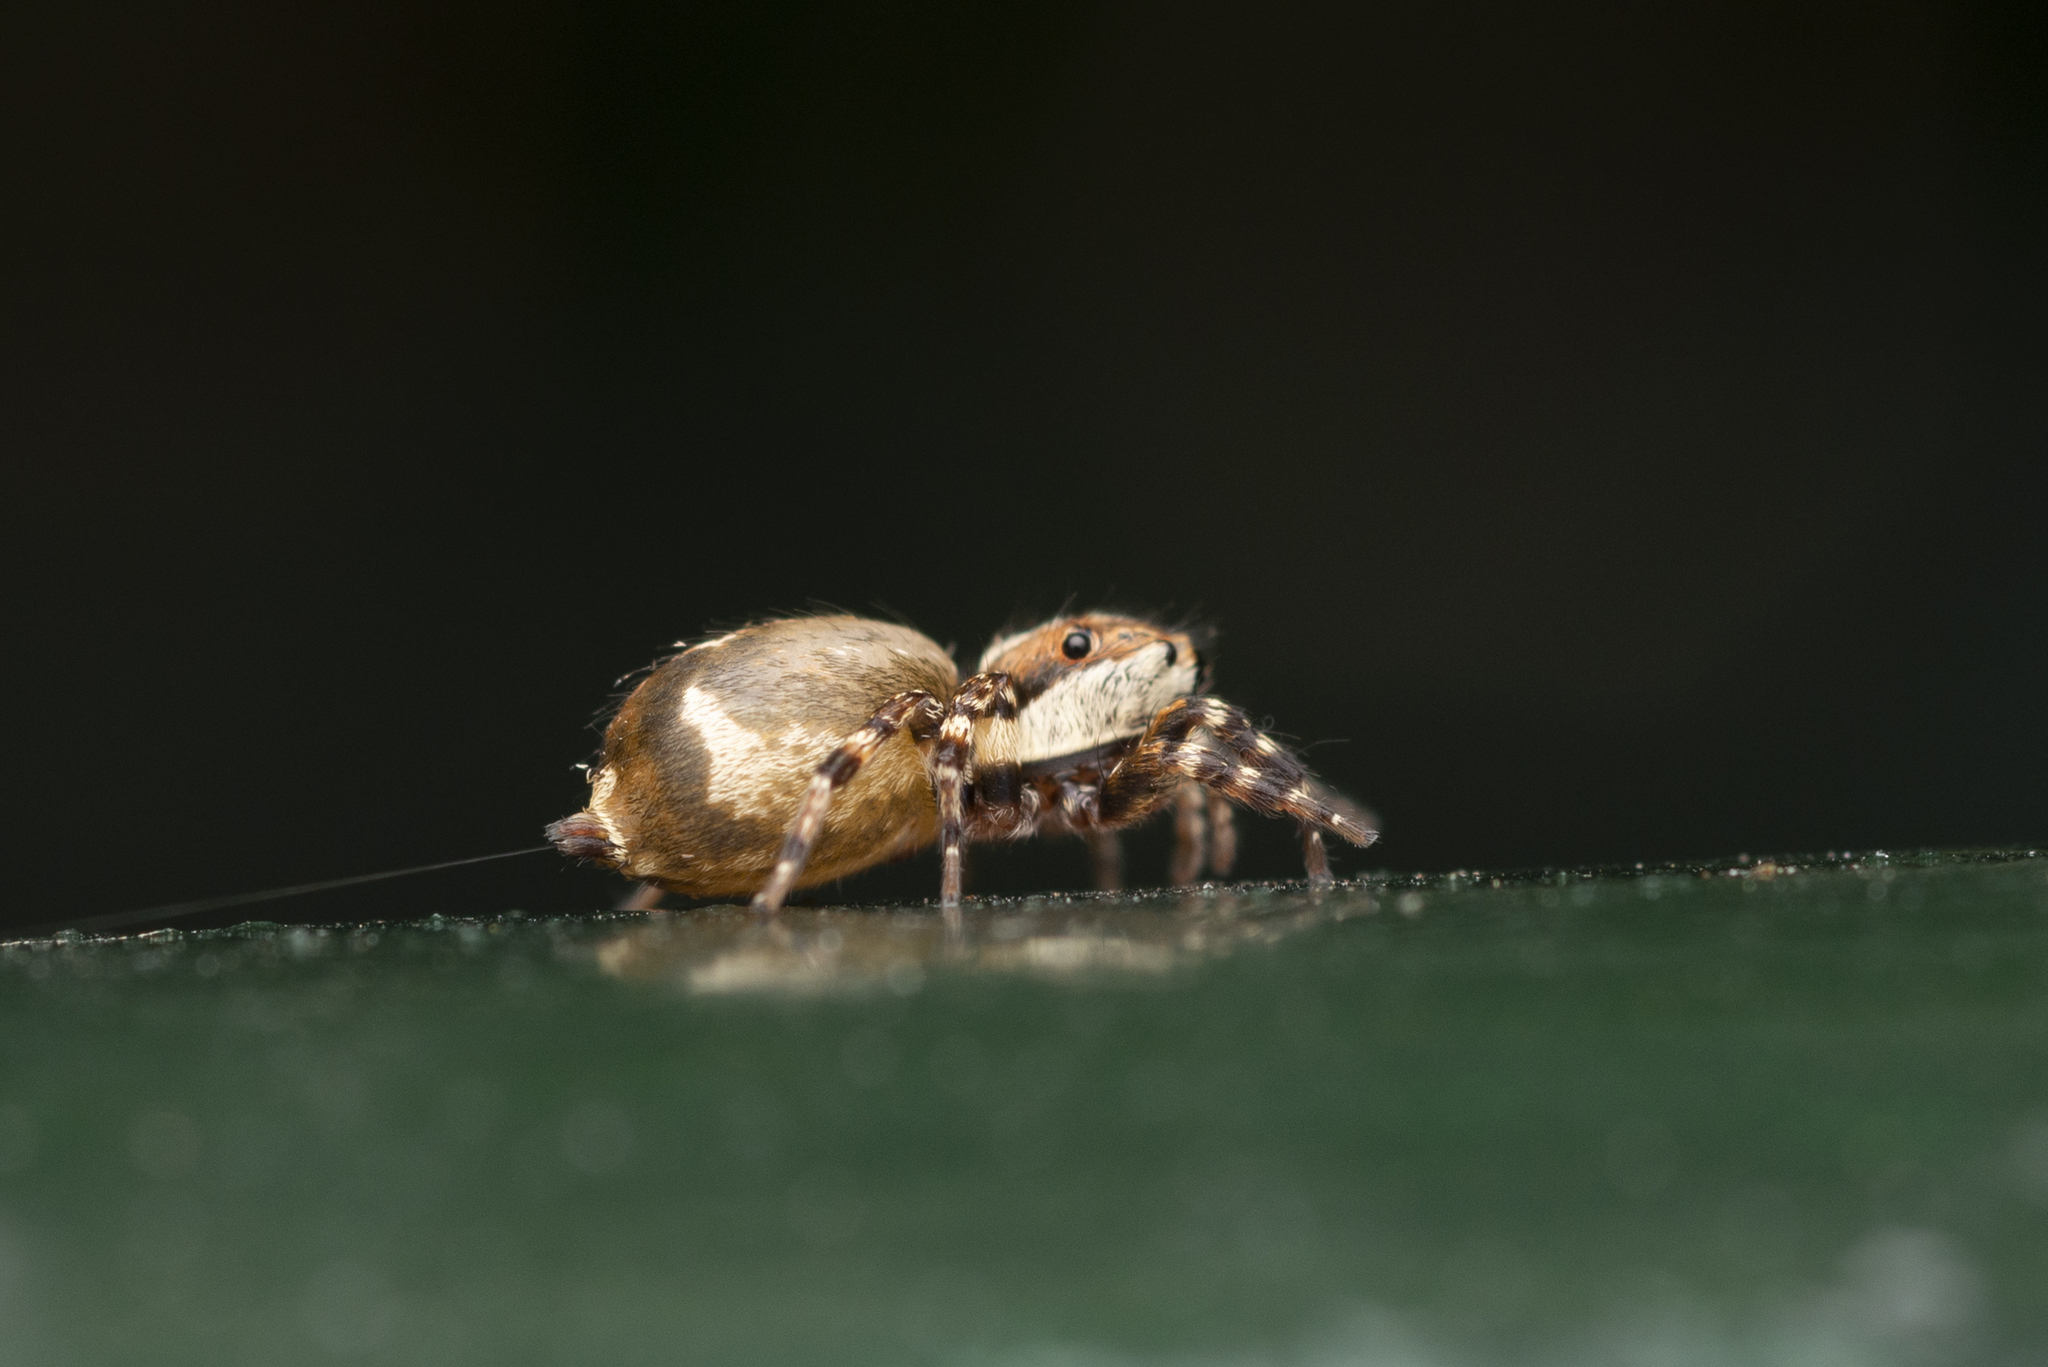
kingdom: Animalia
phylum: Arthropoda
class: Arachnida
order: Araneae
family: Salticidae
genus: Thyene
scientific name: Thyene orientalis
